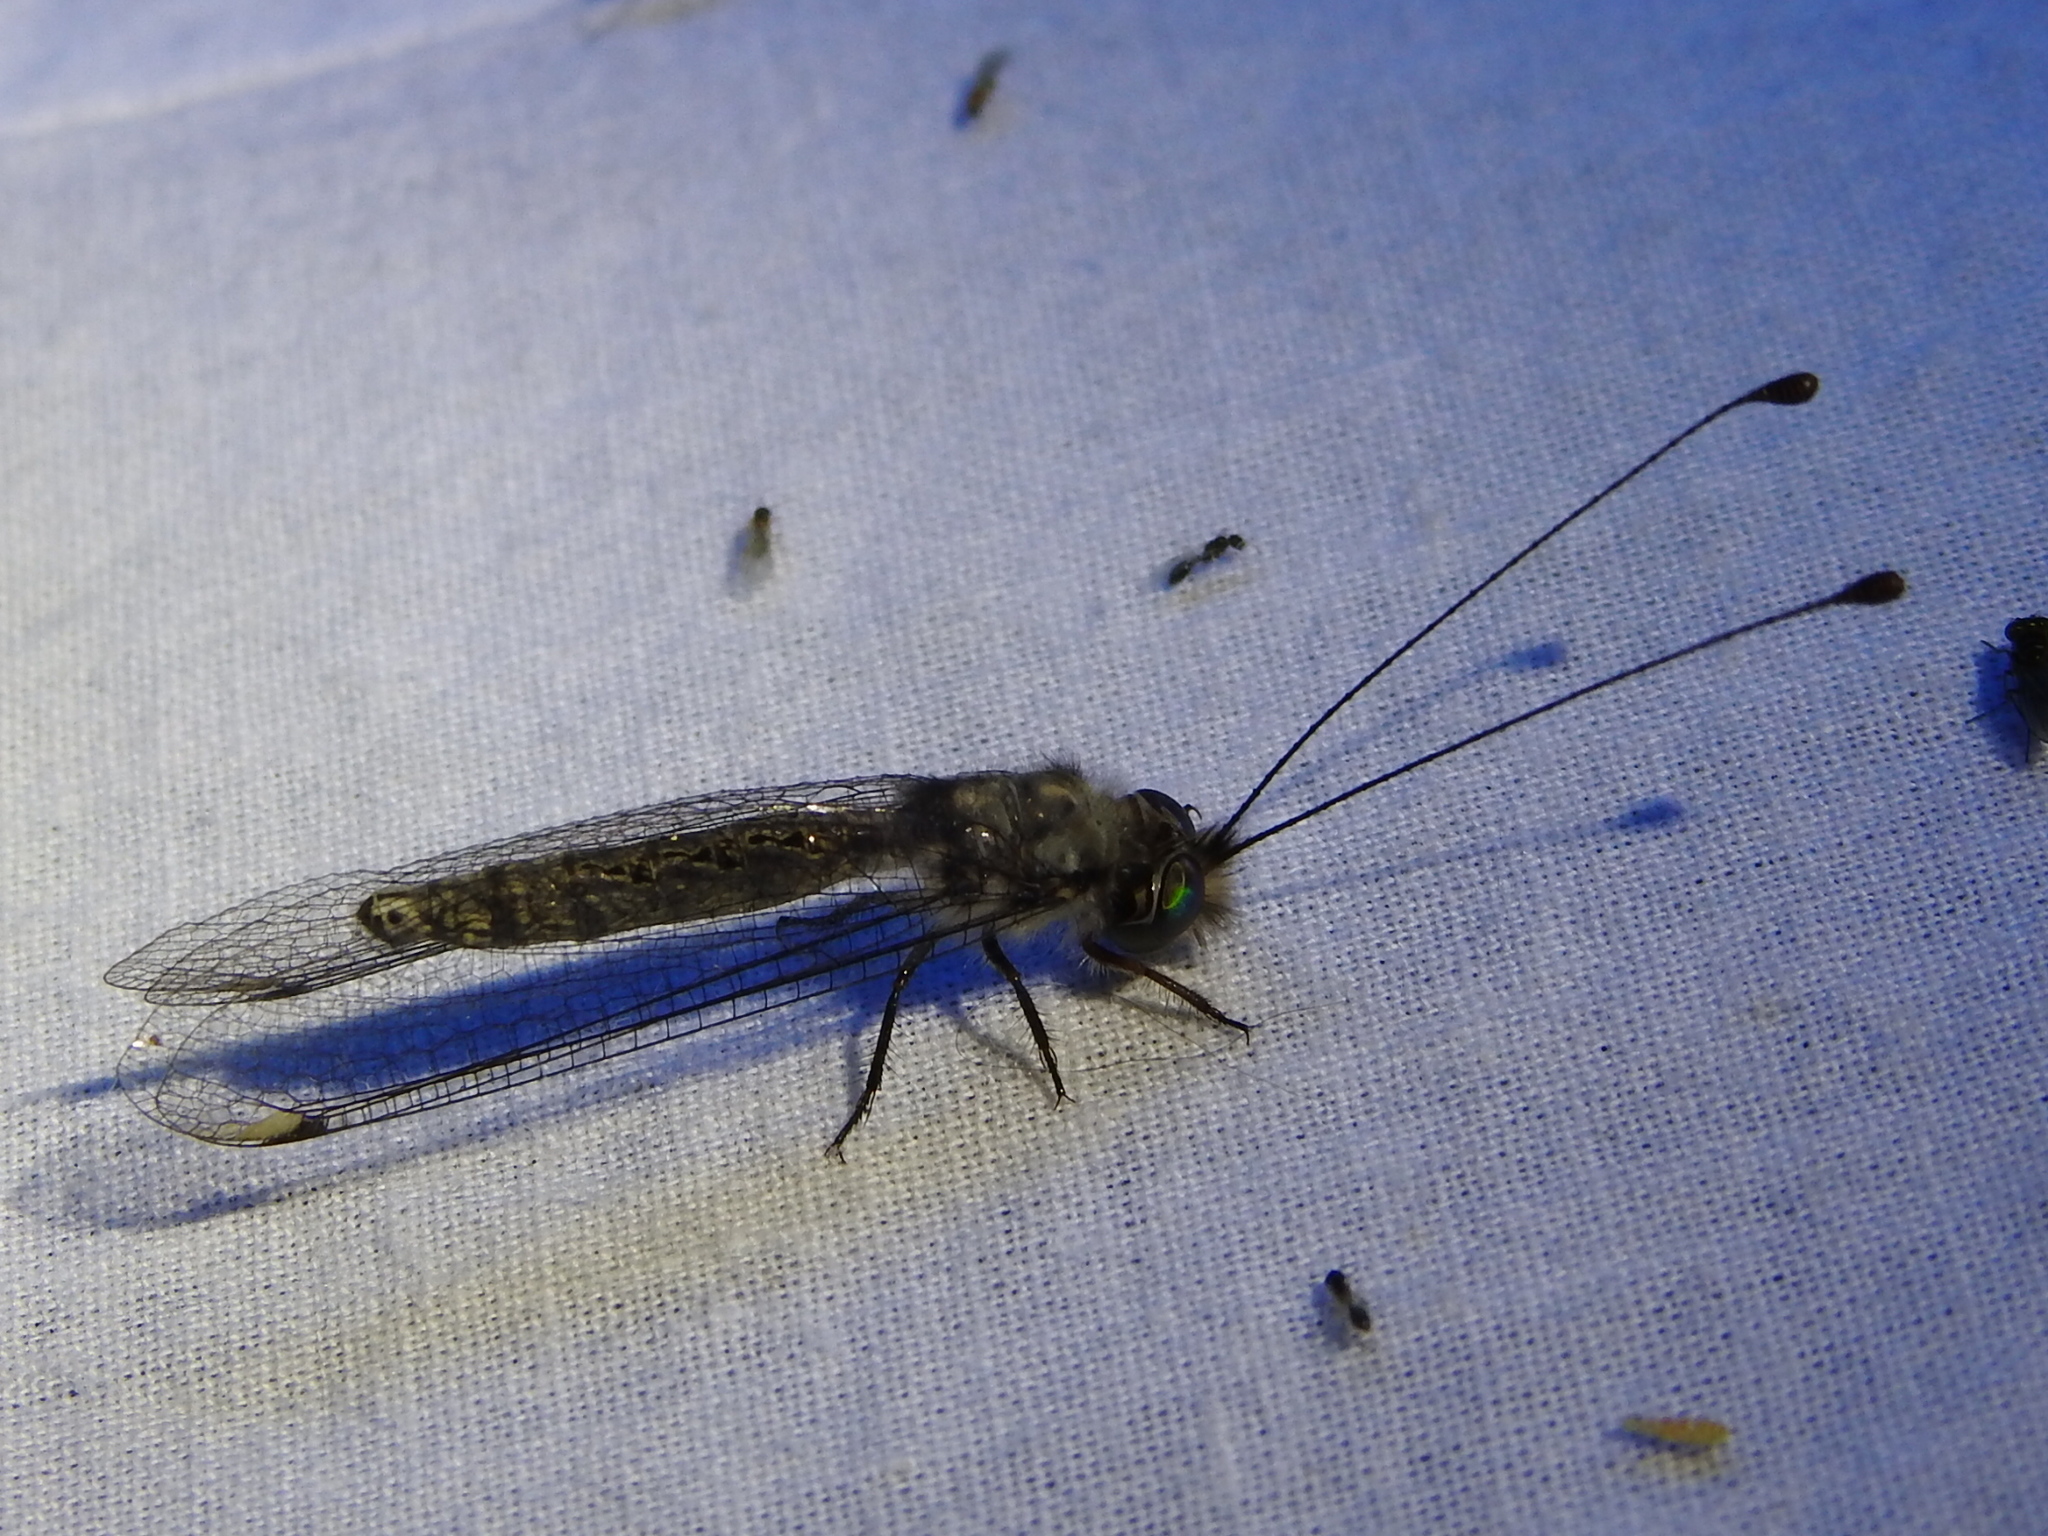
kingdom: Animalia
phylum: Arthropoda
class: Insecta
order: Neuroptera
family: Ascalaphidae
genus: Ululodes
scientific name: Ululodes macleayanus
